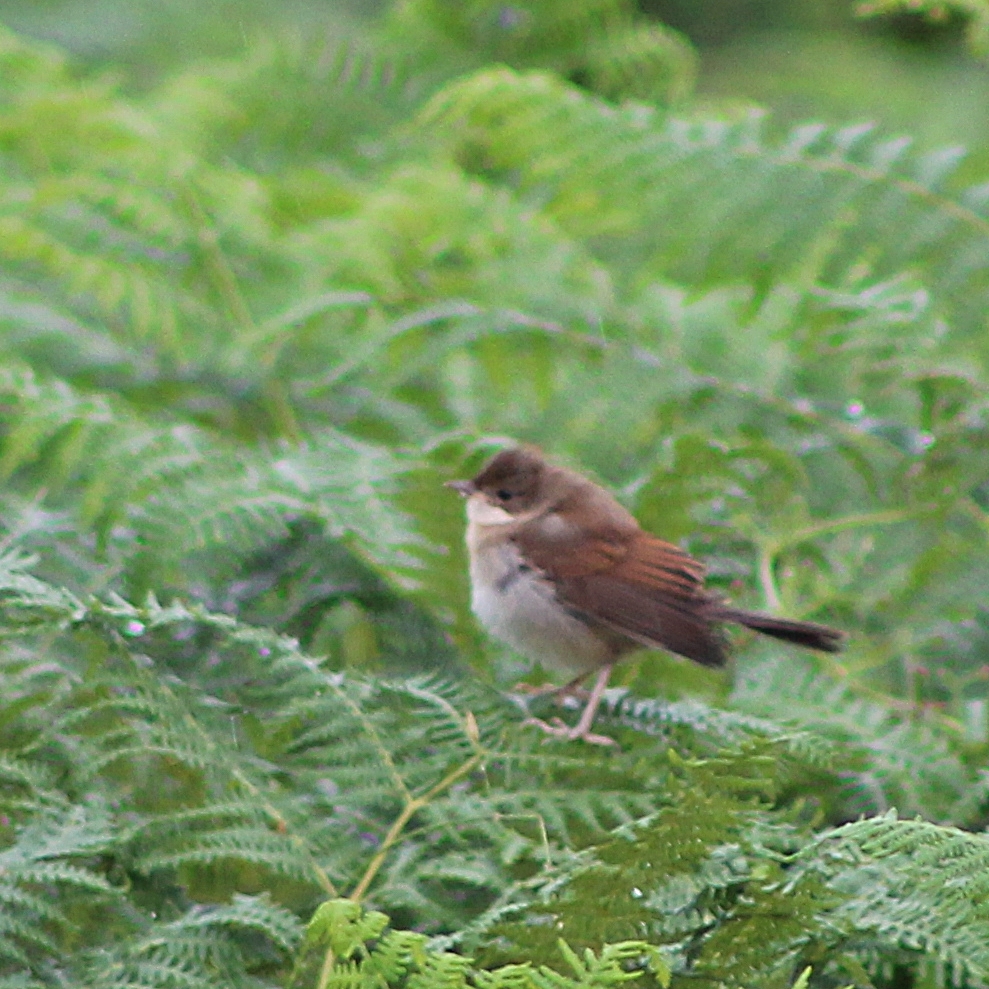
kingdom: Animalia
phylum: Chordata
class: Aves
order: Passeriformes
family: Sylviidae
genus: Sylvia
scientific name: Sylvia communis
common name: Common whitethroat
